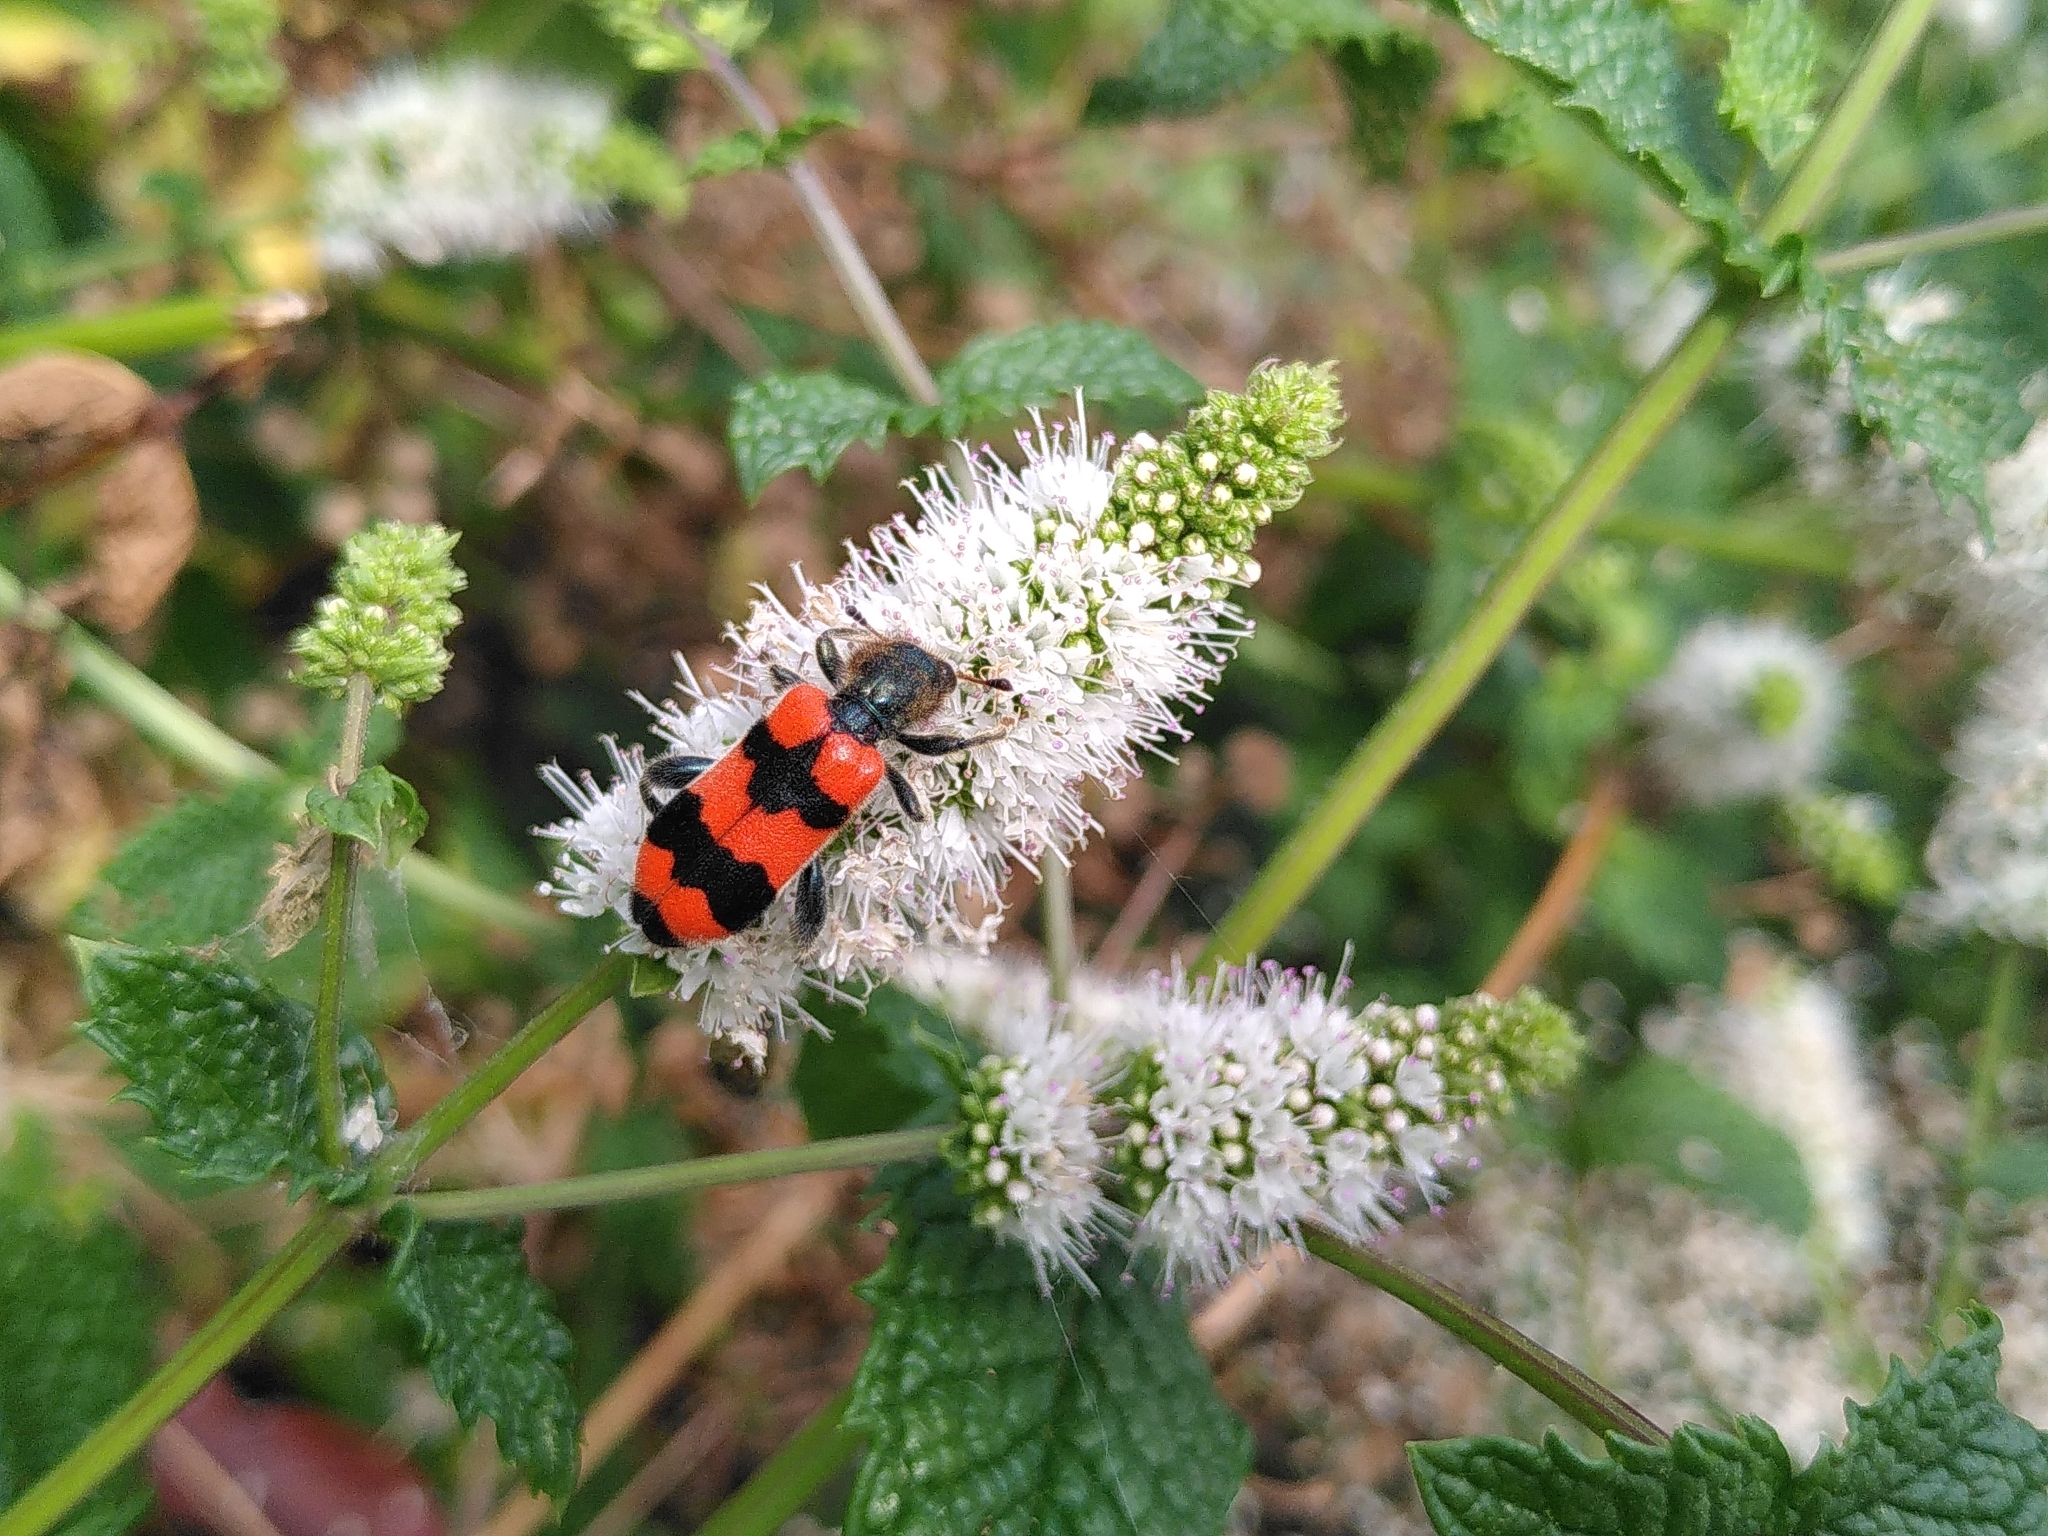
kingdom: Animalia
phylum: Arthropoda
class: Insecta
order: Coleoptera
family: Cleridae
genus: Trichodes
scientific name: Trichodes apiarius
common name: Bee-eating beetle
